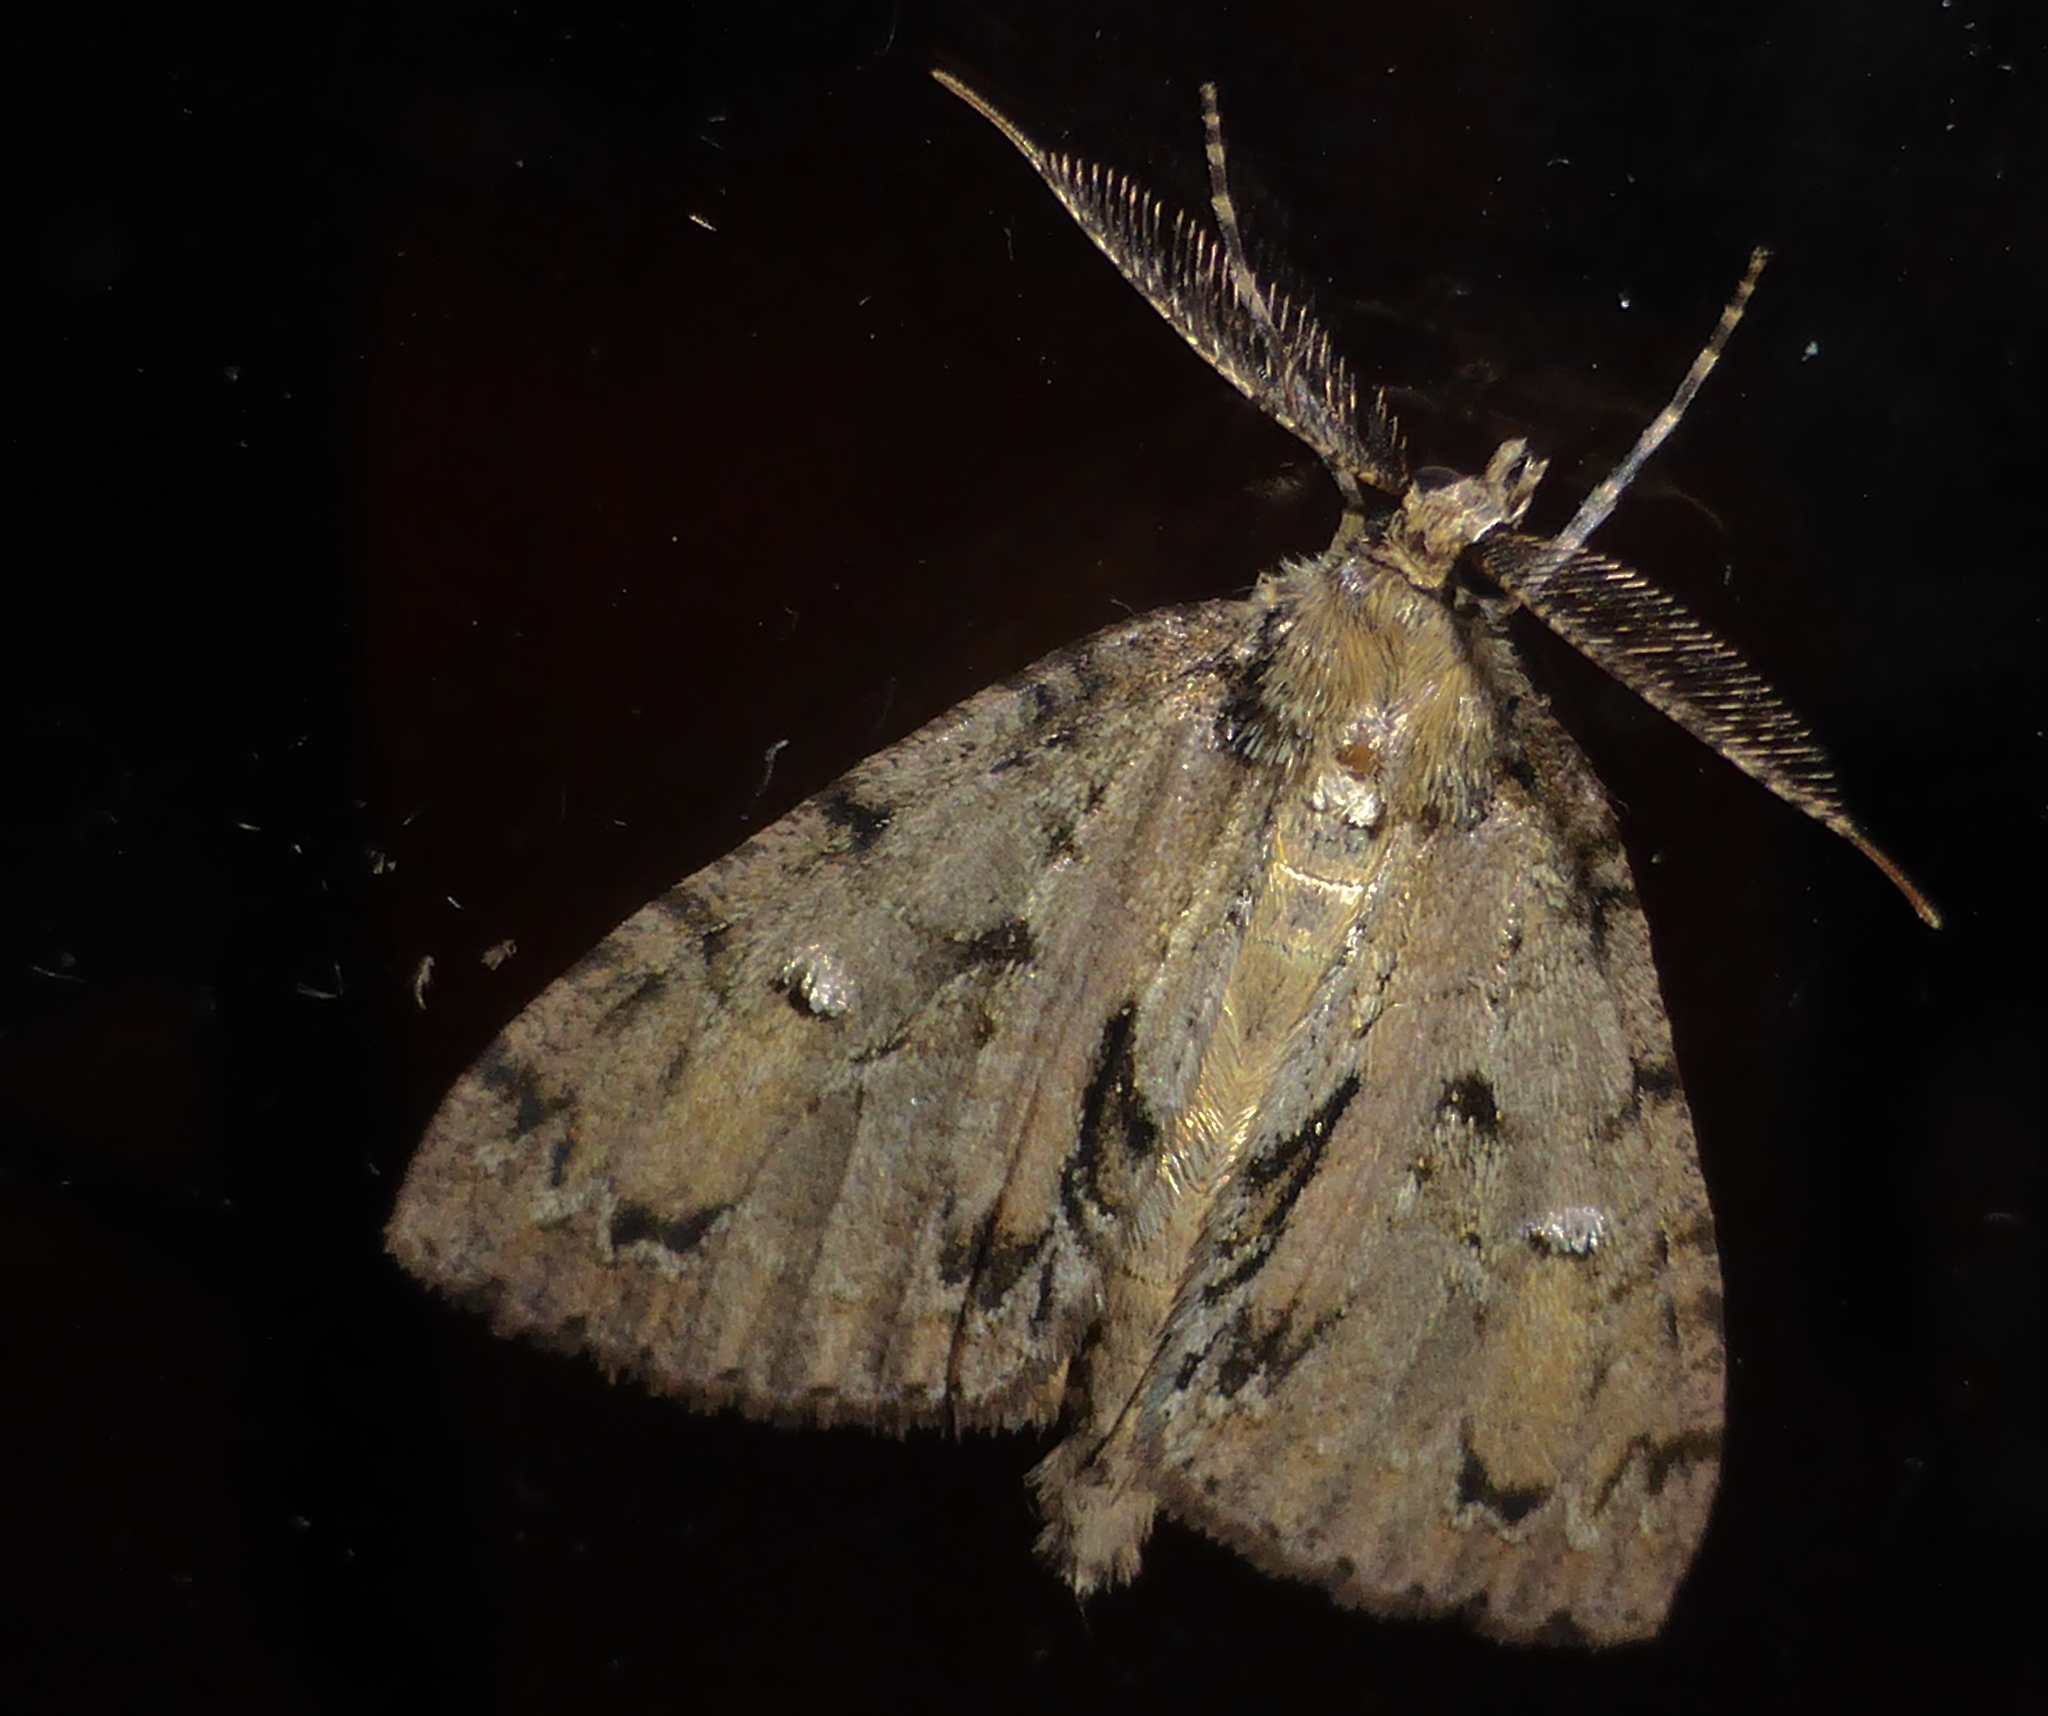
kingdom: Animalia
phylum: Arthropoda
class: Insecta
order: Lepidoptera
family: Geometridae
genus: Pseudocoremia
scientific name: Pseudocoremia suavis
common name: Common forest looper
